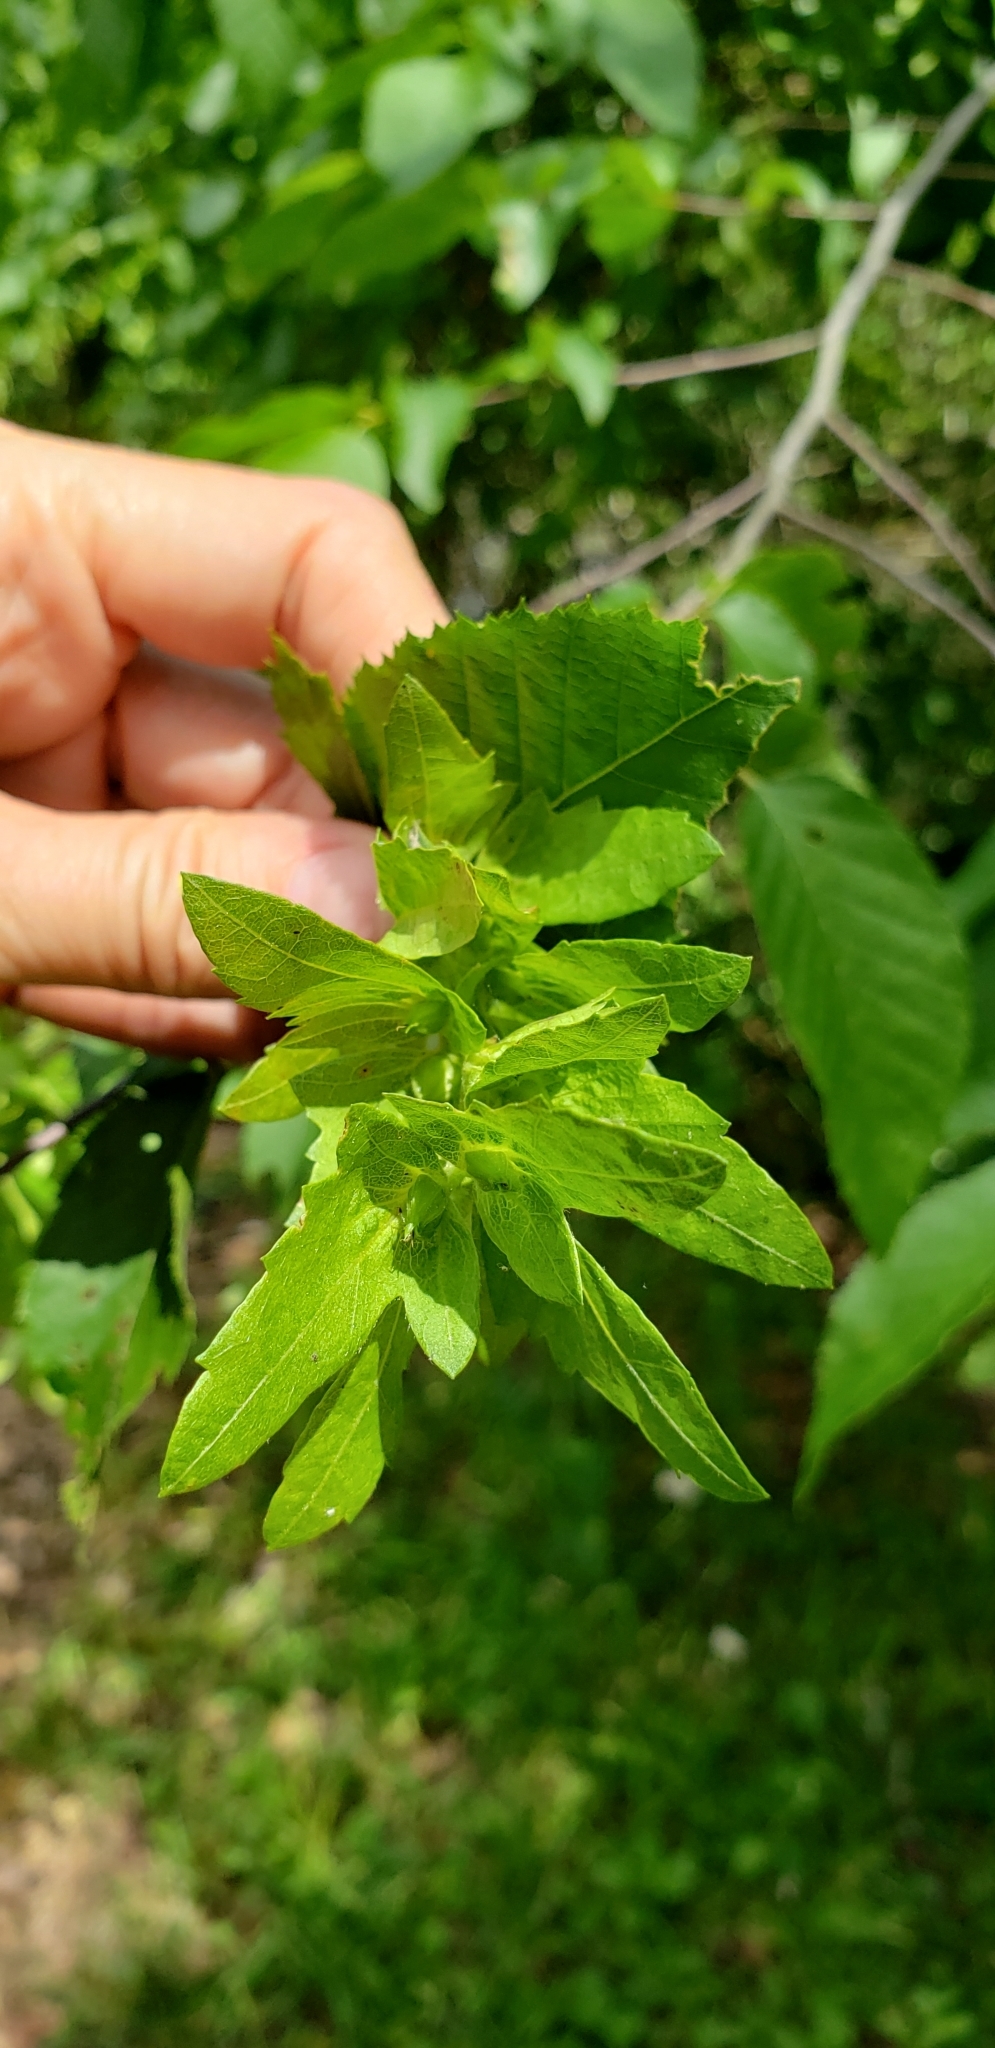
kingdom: Plantae
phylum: Tracheophyta
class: Magnoliopsida
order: Fagales
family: Betulaceae
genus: Carpinus
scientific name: Carpinus caroliniana
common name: American hornbeam
